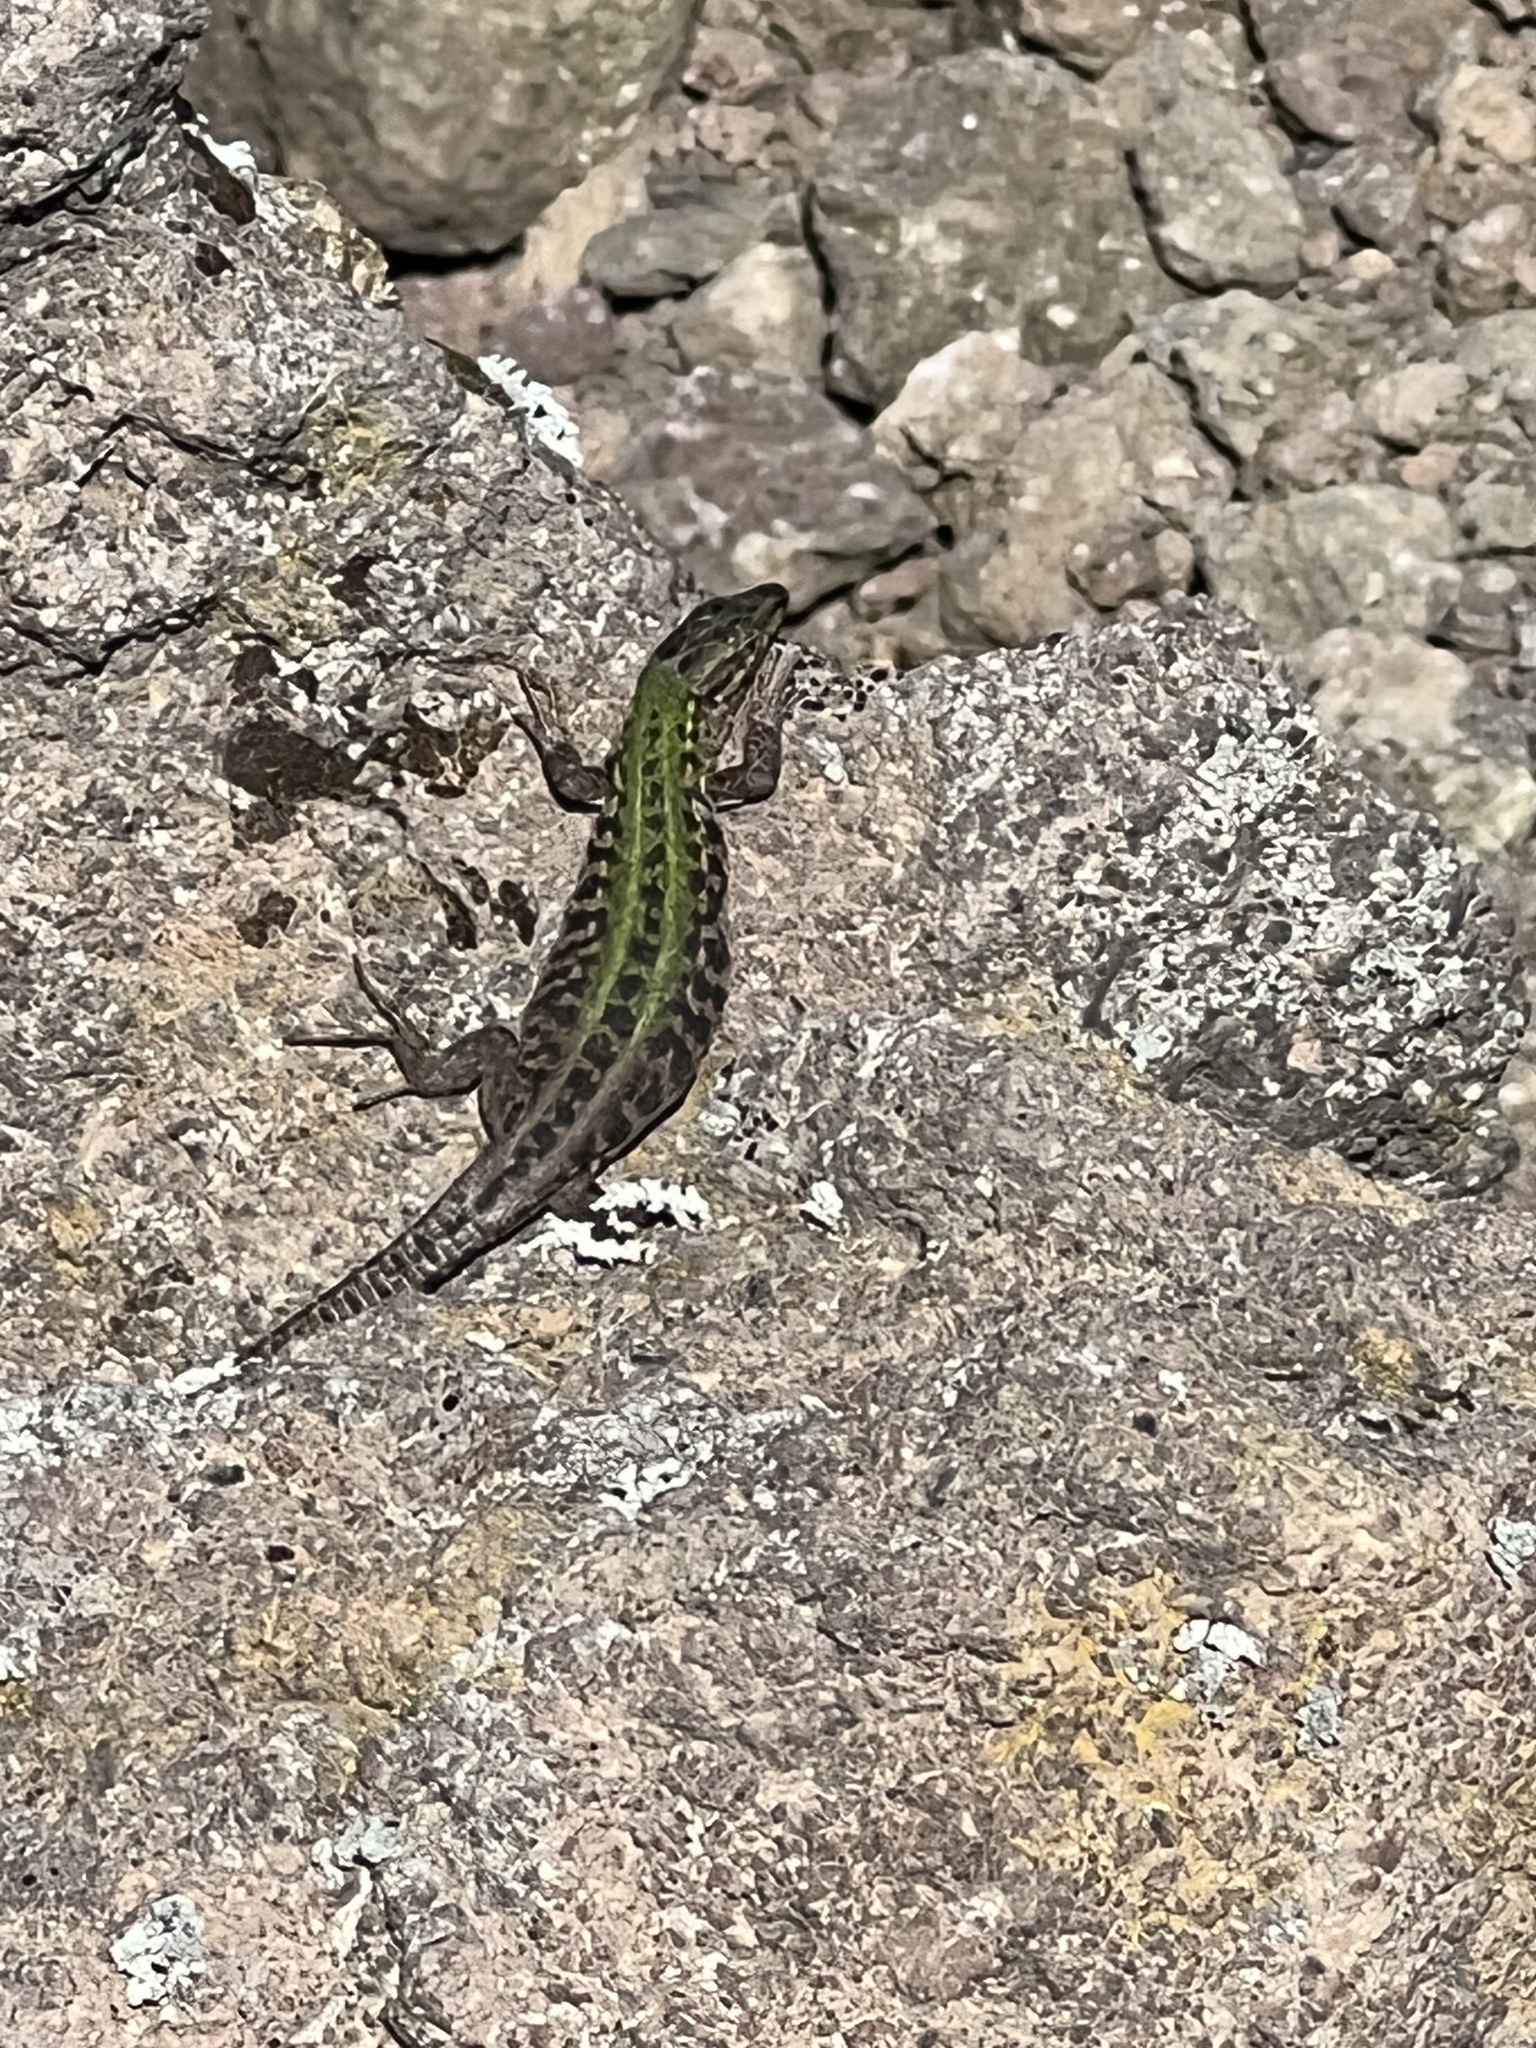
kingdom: Animalia
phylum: Chordata
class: Squamata
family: Lacertidae
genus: Podarcis
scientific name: Podarcis siculus
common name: Italian wall lizard
